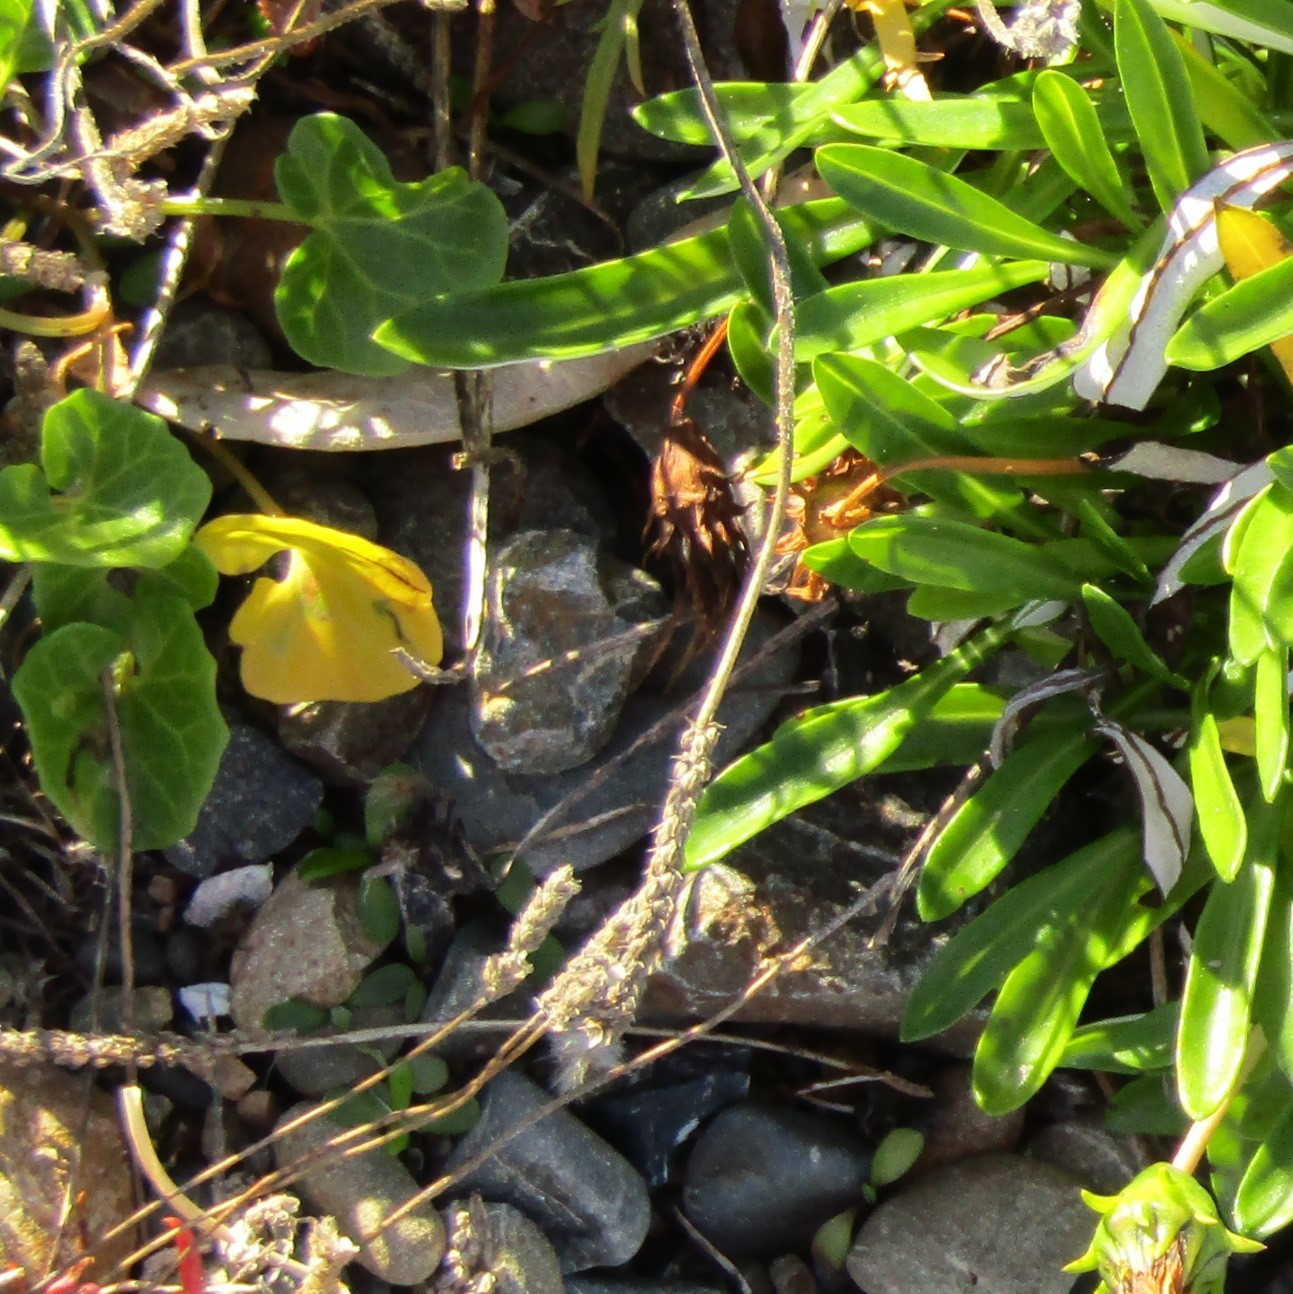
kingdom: Plantae
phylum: Tracheophyta
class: Magnoliopsida
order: Solanales
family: Convolvulaceae
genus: Calystegia
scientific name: Calystegia soldanella
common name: Sea bindweed
